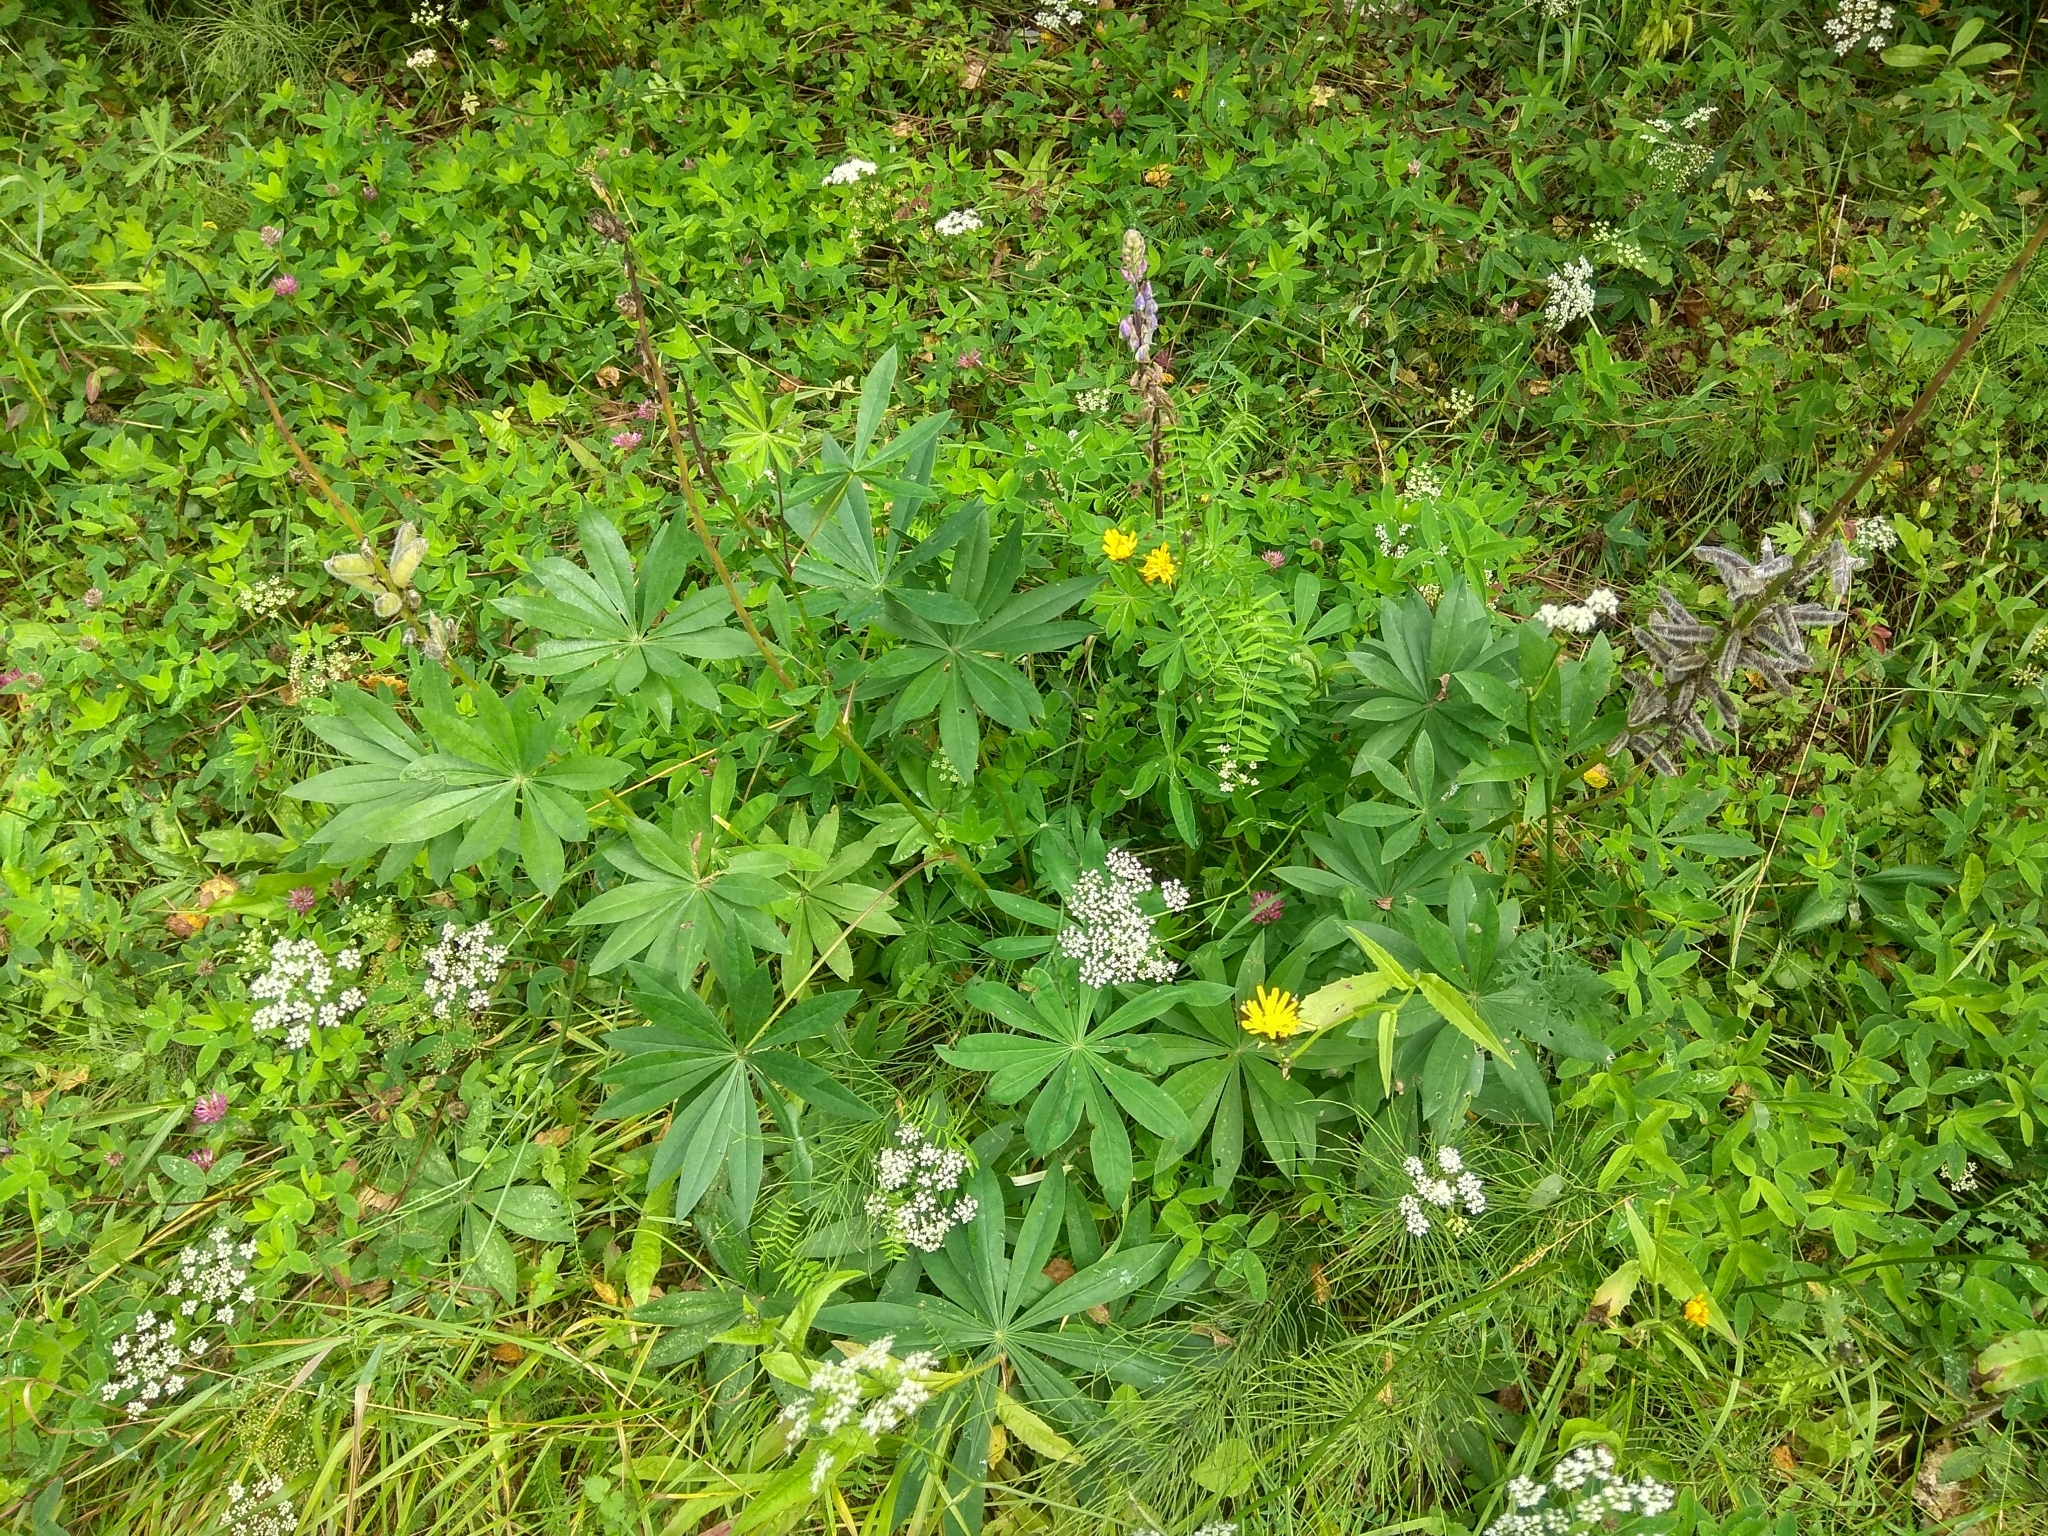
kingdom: Plantae
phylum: Tracheophyta
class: Magnoliopsida
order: Fabales
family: Fabaceae
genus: Lupinus
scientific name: Lupinus polyphyllus
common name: Garden lupin
